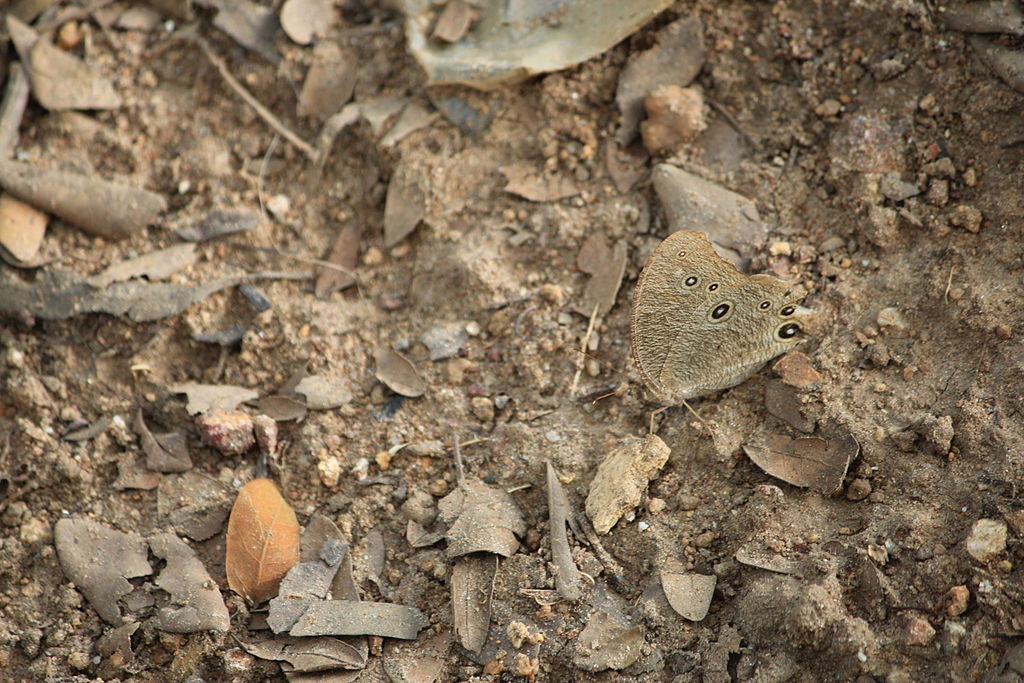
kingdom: Animalia
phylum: Arthropoda
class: Insecta
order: Lepidoptera
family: Nymphalidae
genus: Melanitis
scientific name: Melanitis leda
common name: Twilight brown
